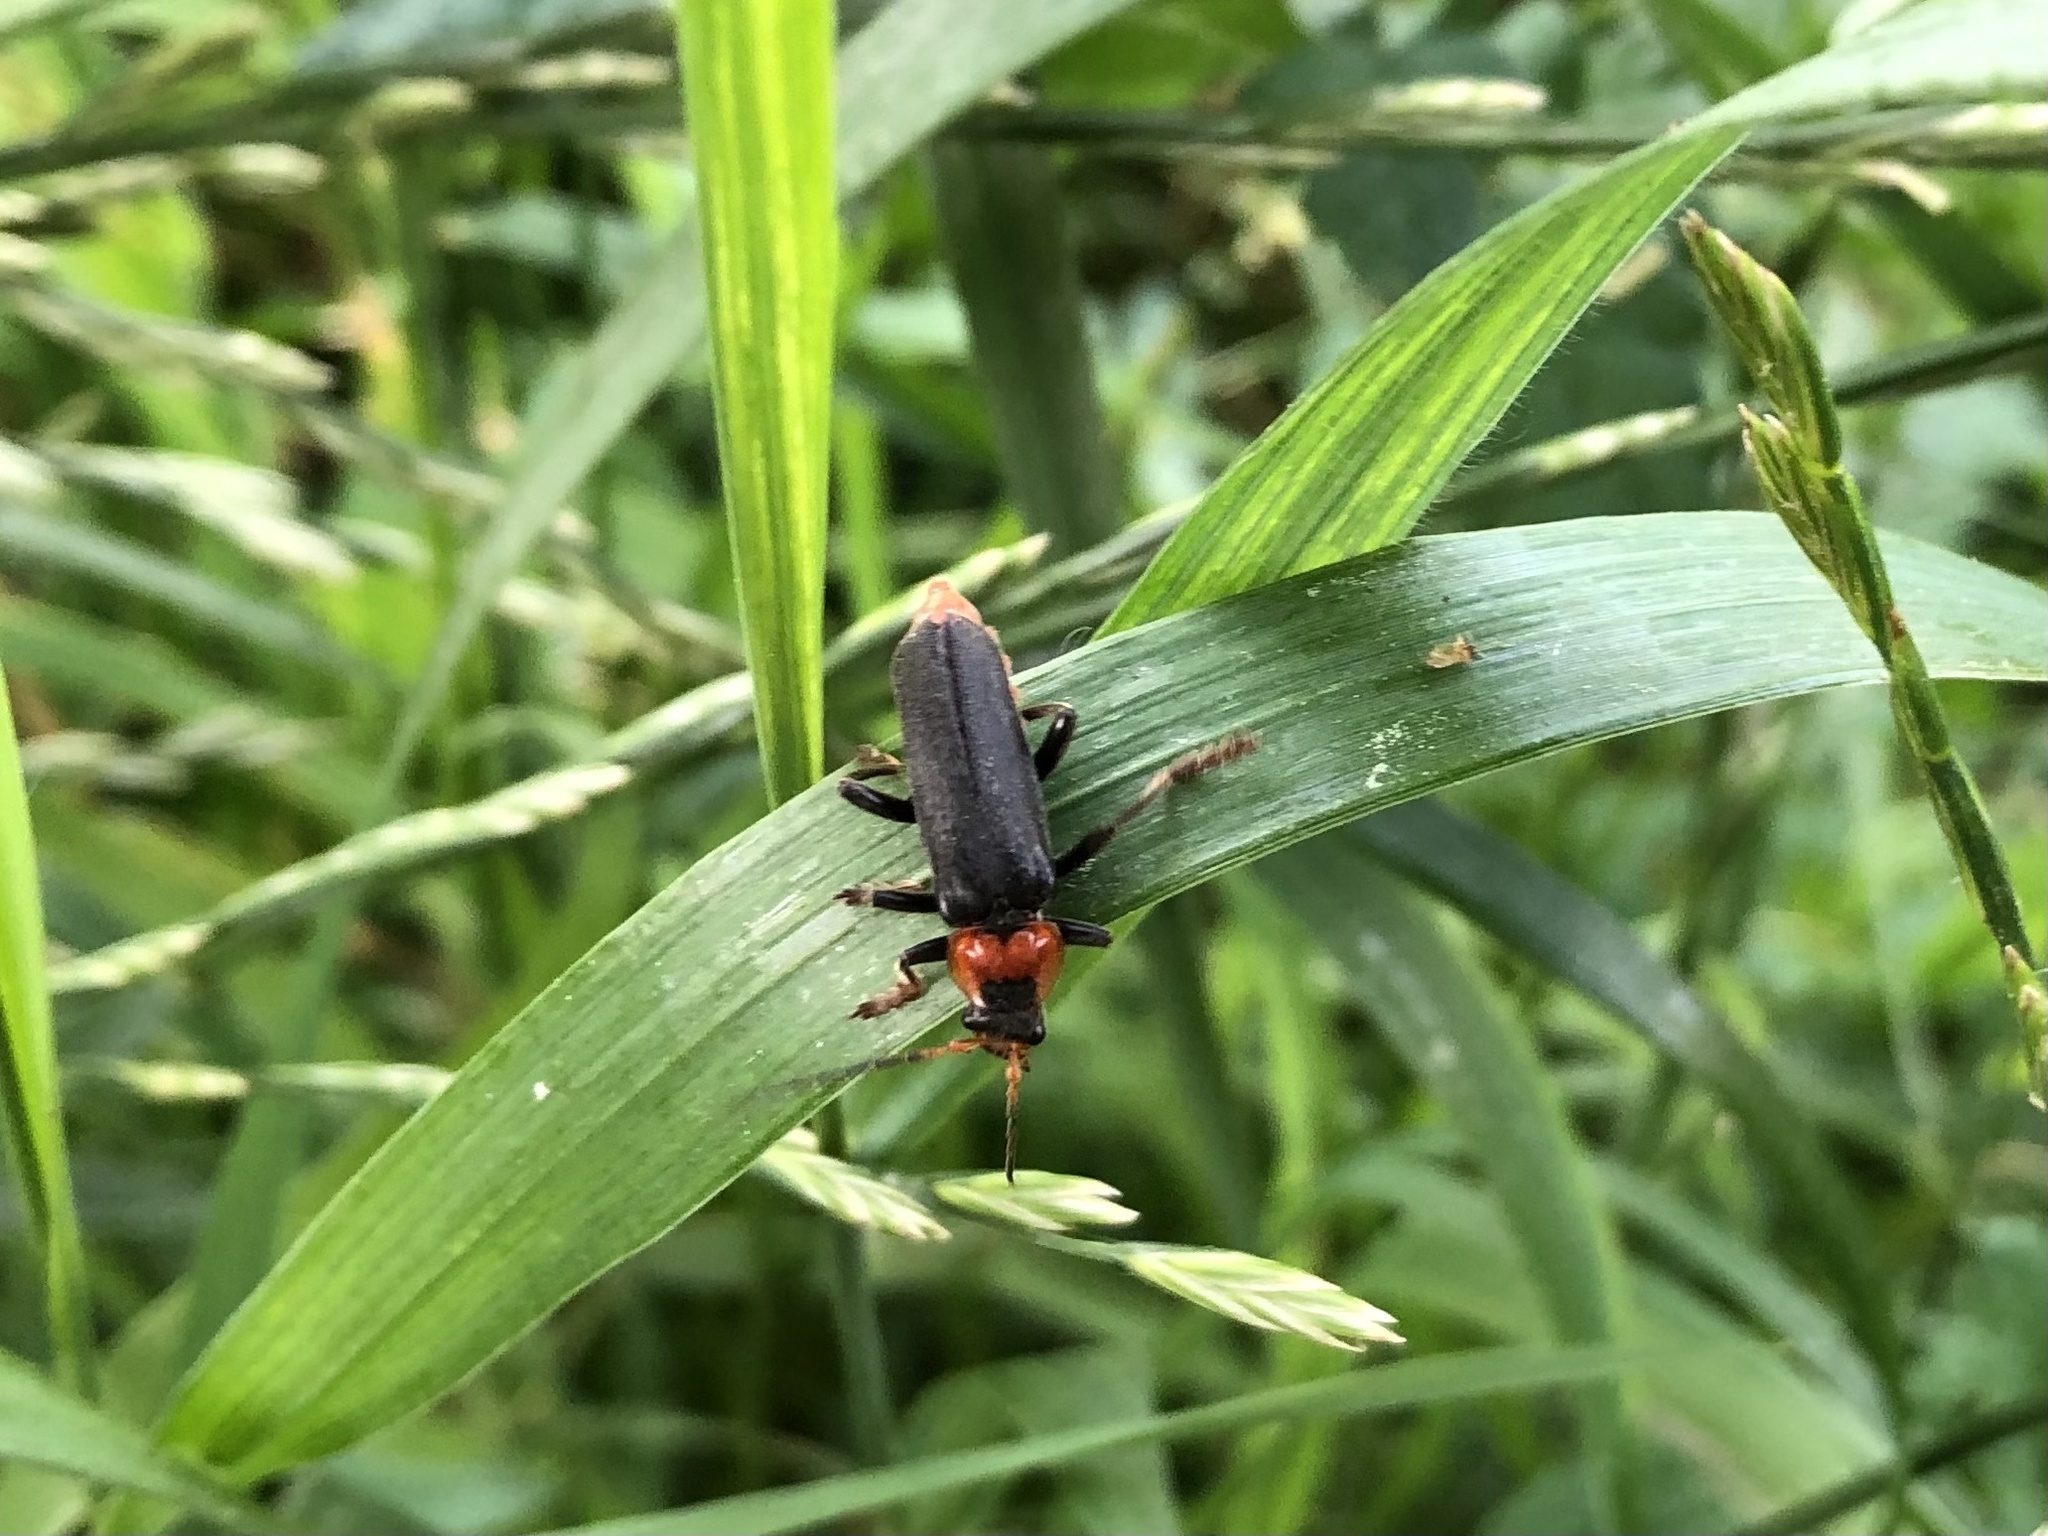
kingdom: Animalia
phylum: Arthropoda
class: Insecta
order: Coleoptera
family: Cantharidae
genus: Cantharis
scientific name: Cantharis fusca
